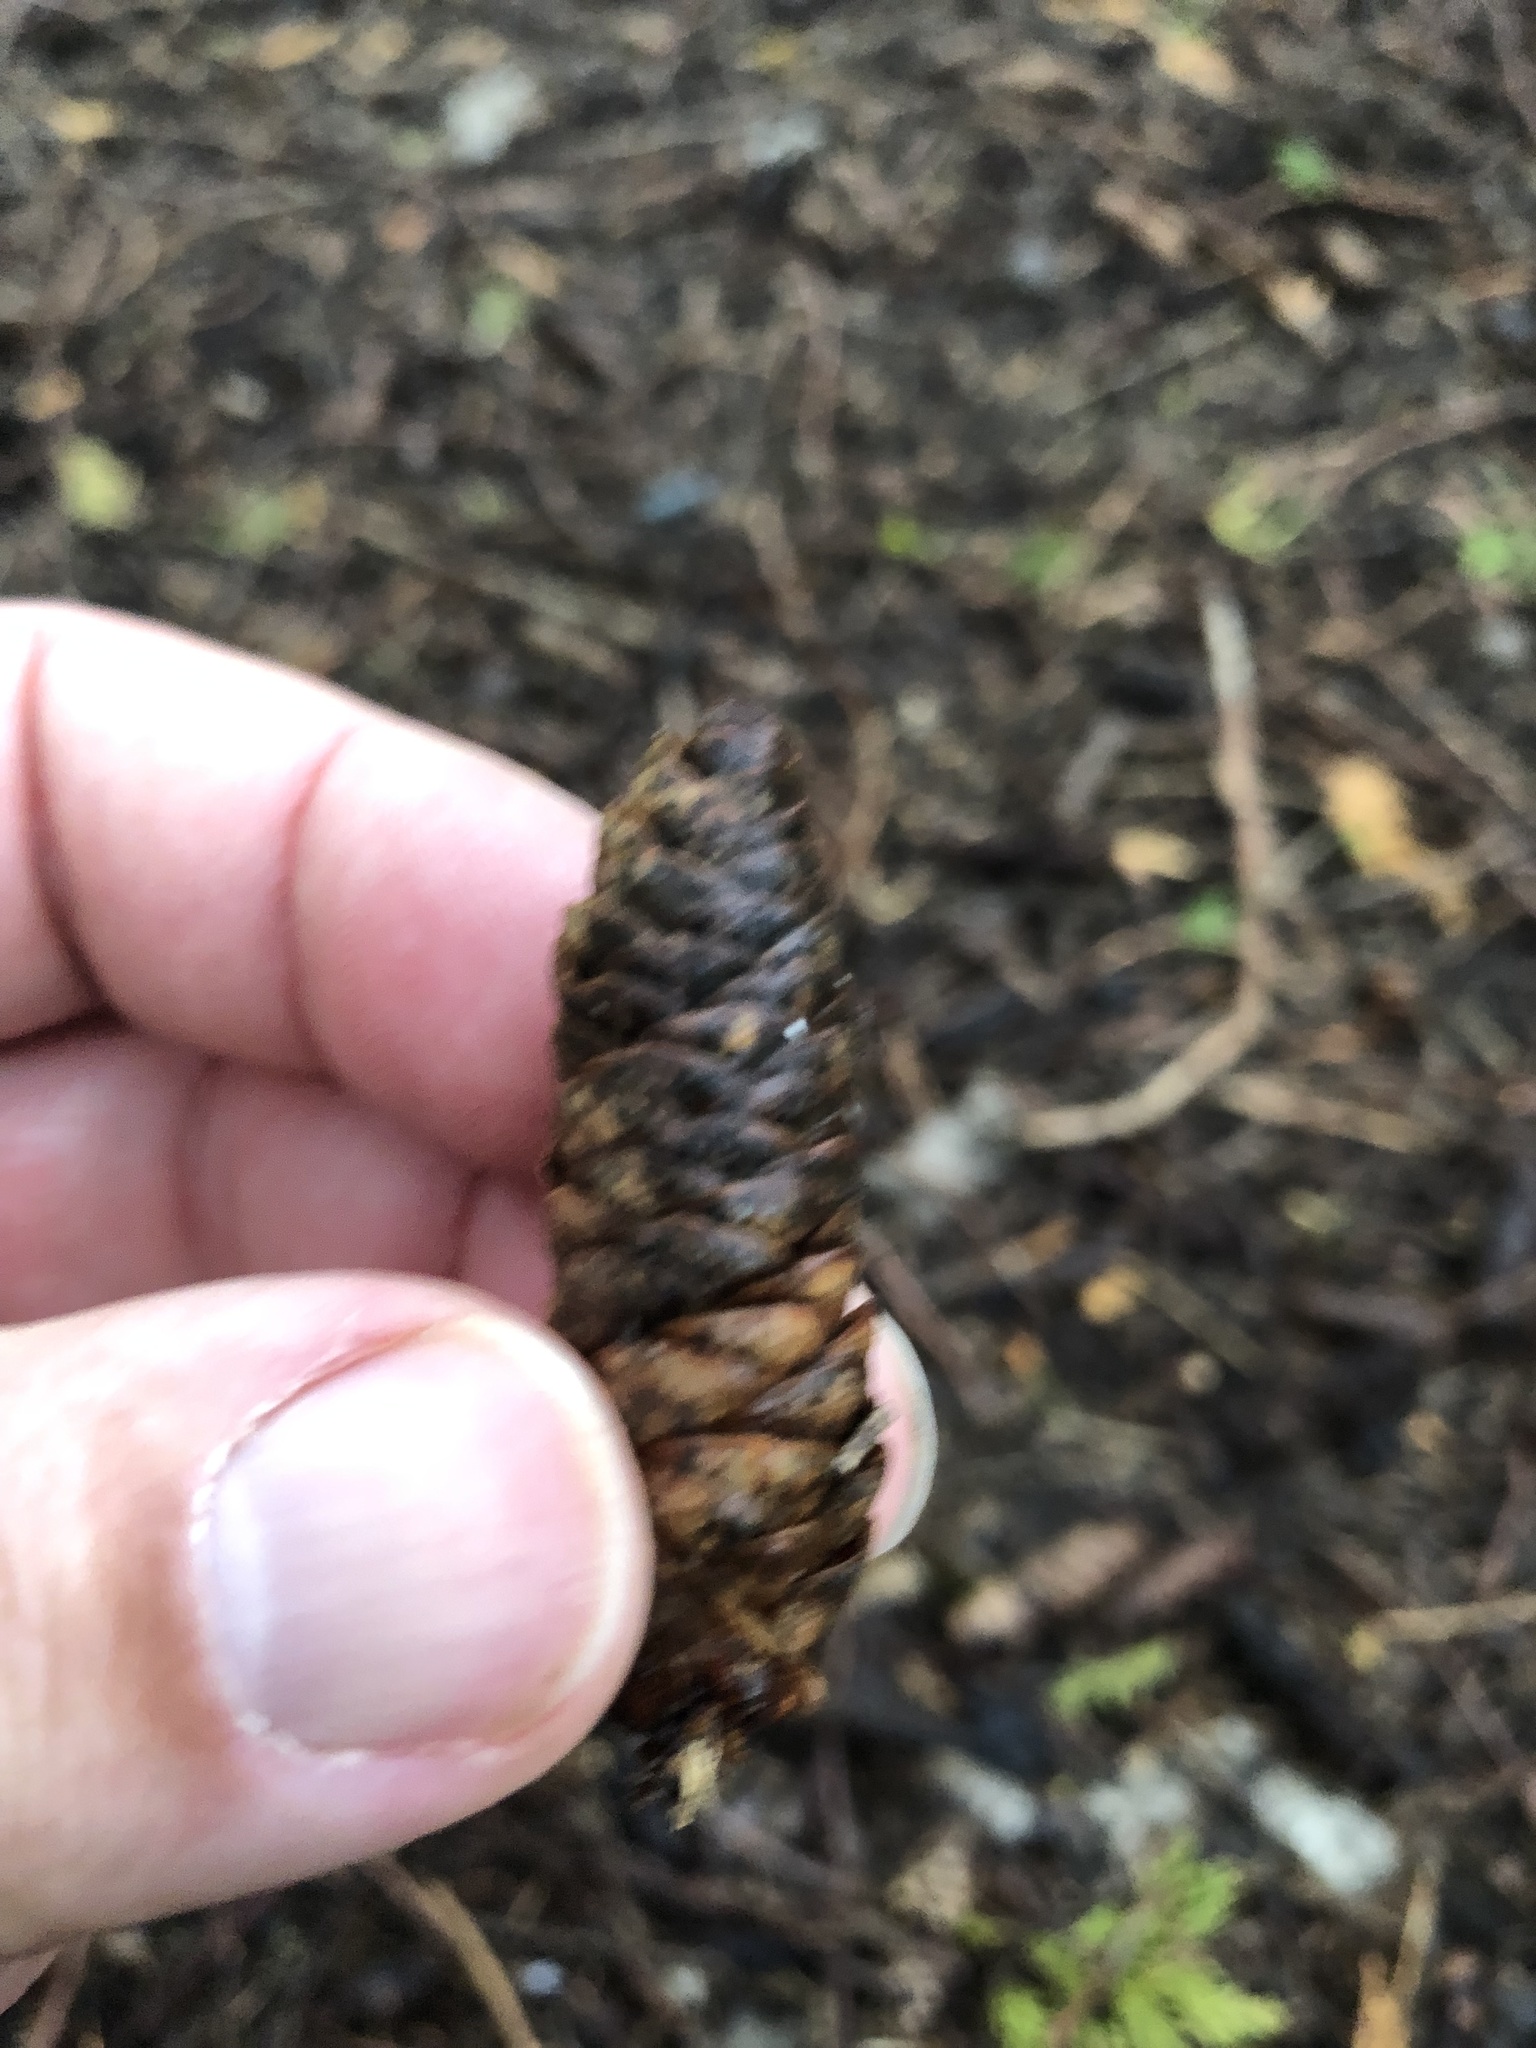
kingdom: Plantae
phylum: Tracheophyta
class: Pinopsida
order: Pinales
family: Pinaceae
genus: Picea
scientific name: Picea glauca
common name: White spruce
